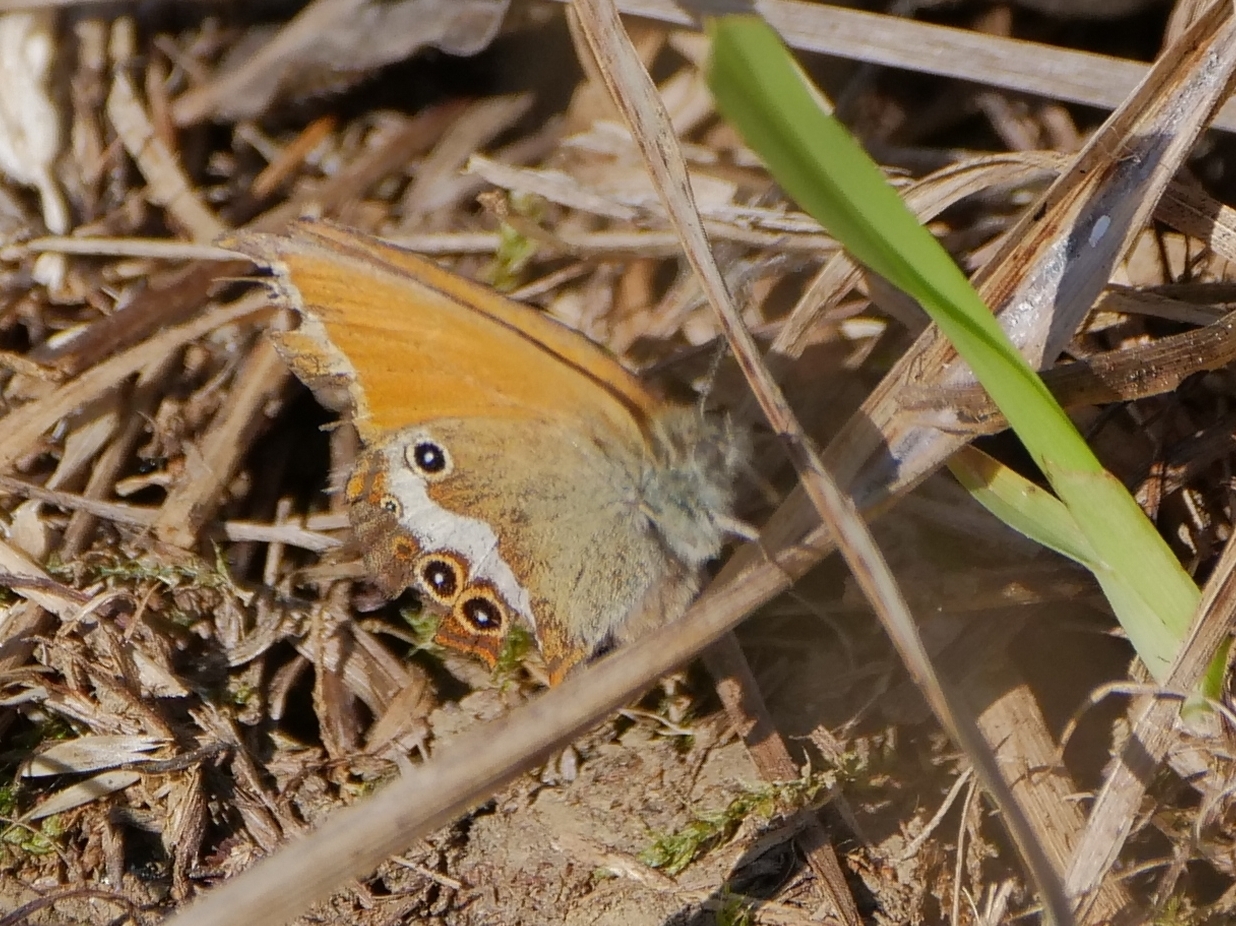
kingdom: Animalia
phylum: Arthropoda
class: Insecta
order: Lepidoptera
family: Nymphalidae
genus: Coenonympha
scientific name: Coenonympha arcania
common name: Pearly heath
